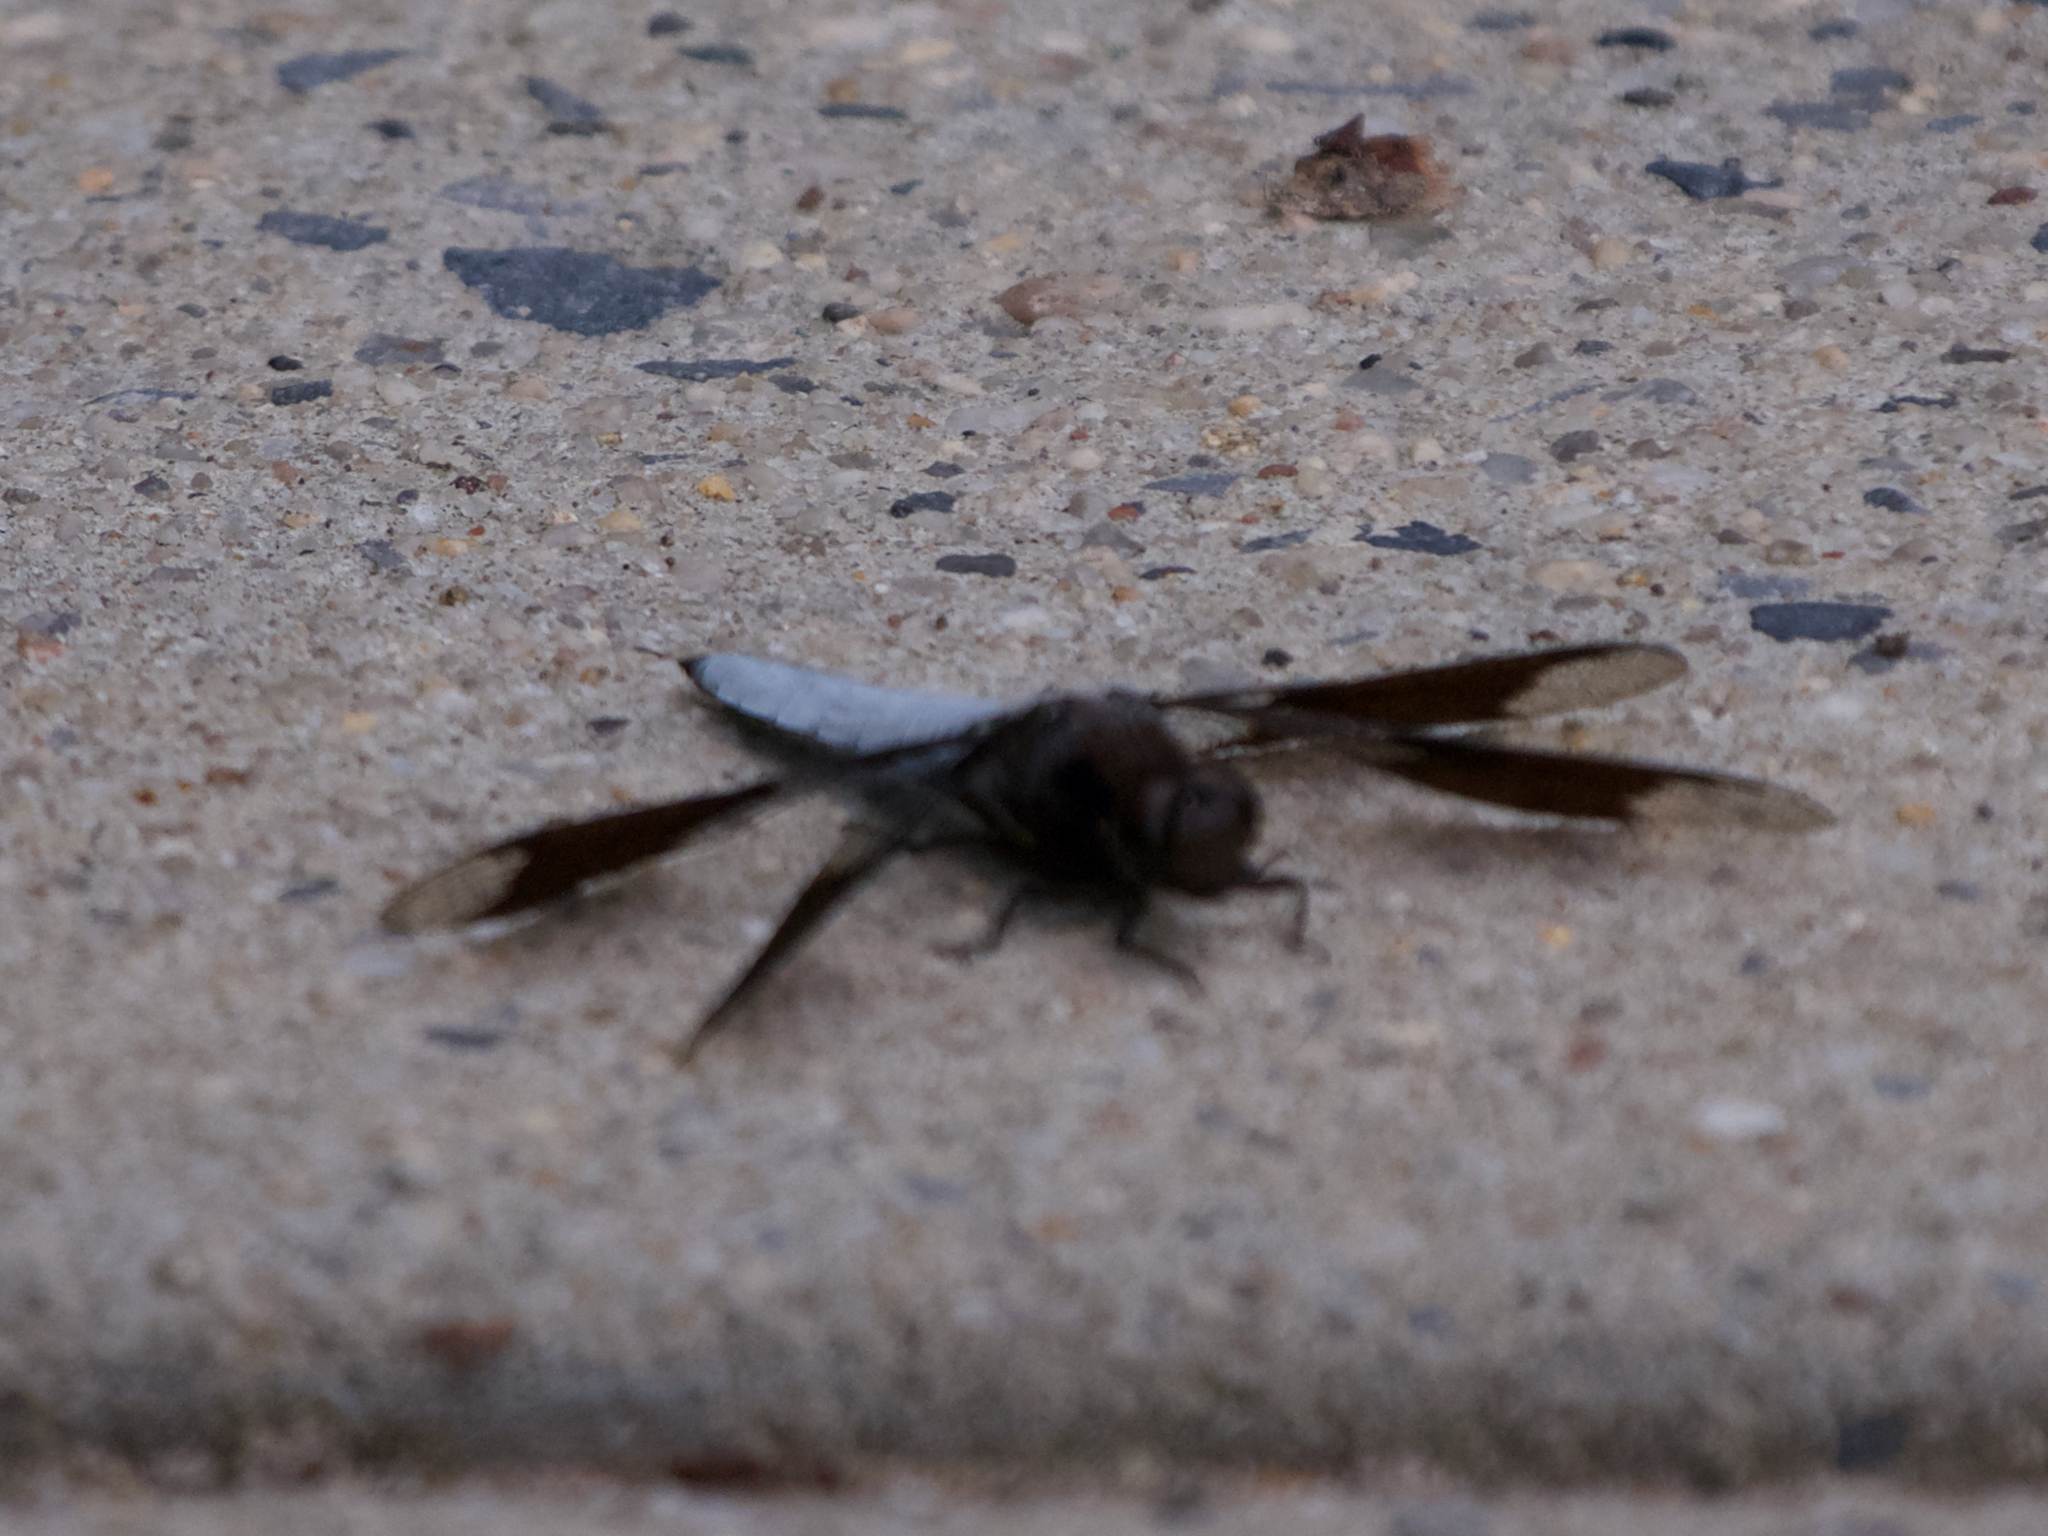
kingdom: Animalia
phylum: Arthropoda
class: Insecta
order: Odonata
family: Libellulidae
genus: Plathemis
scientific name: Plathemis lydia
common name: Common whitetail
